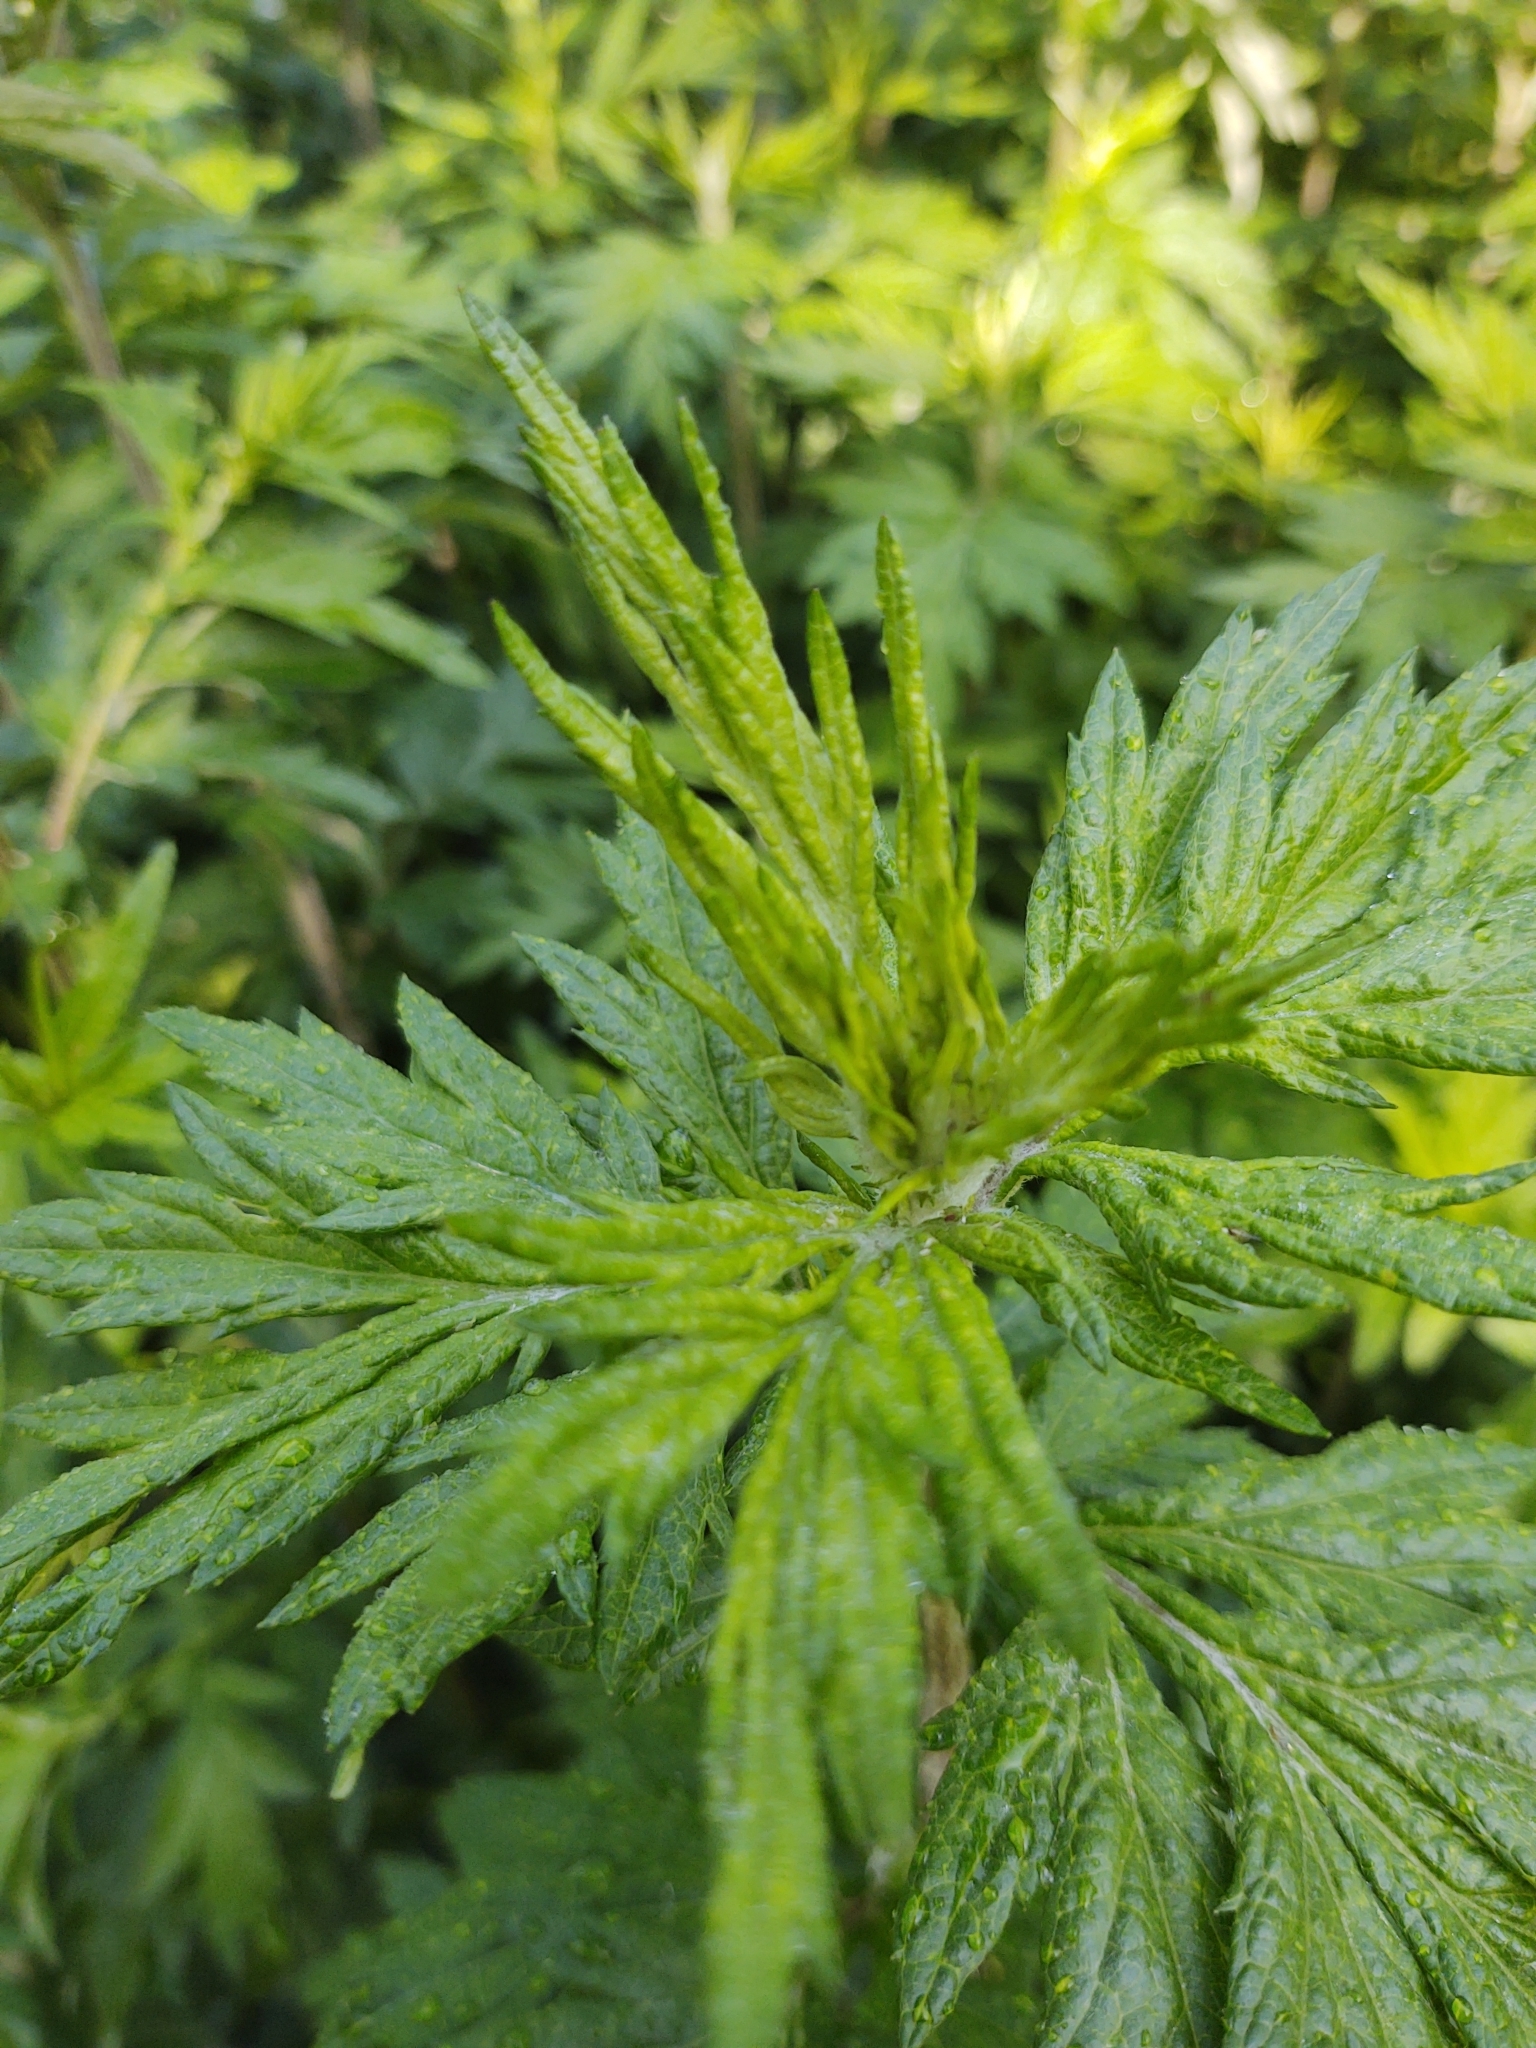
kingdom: Plantae
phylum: Tracheophyta
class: Magnoliopsida
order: Asterales
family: Asteraceae
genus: Artemisia
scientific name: Artemisia vulgaris
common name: Mugwort
